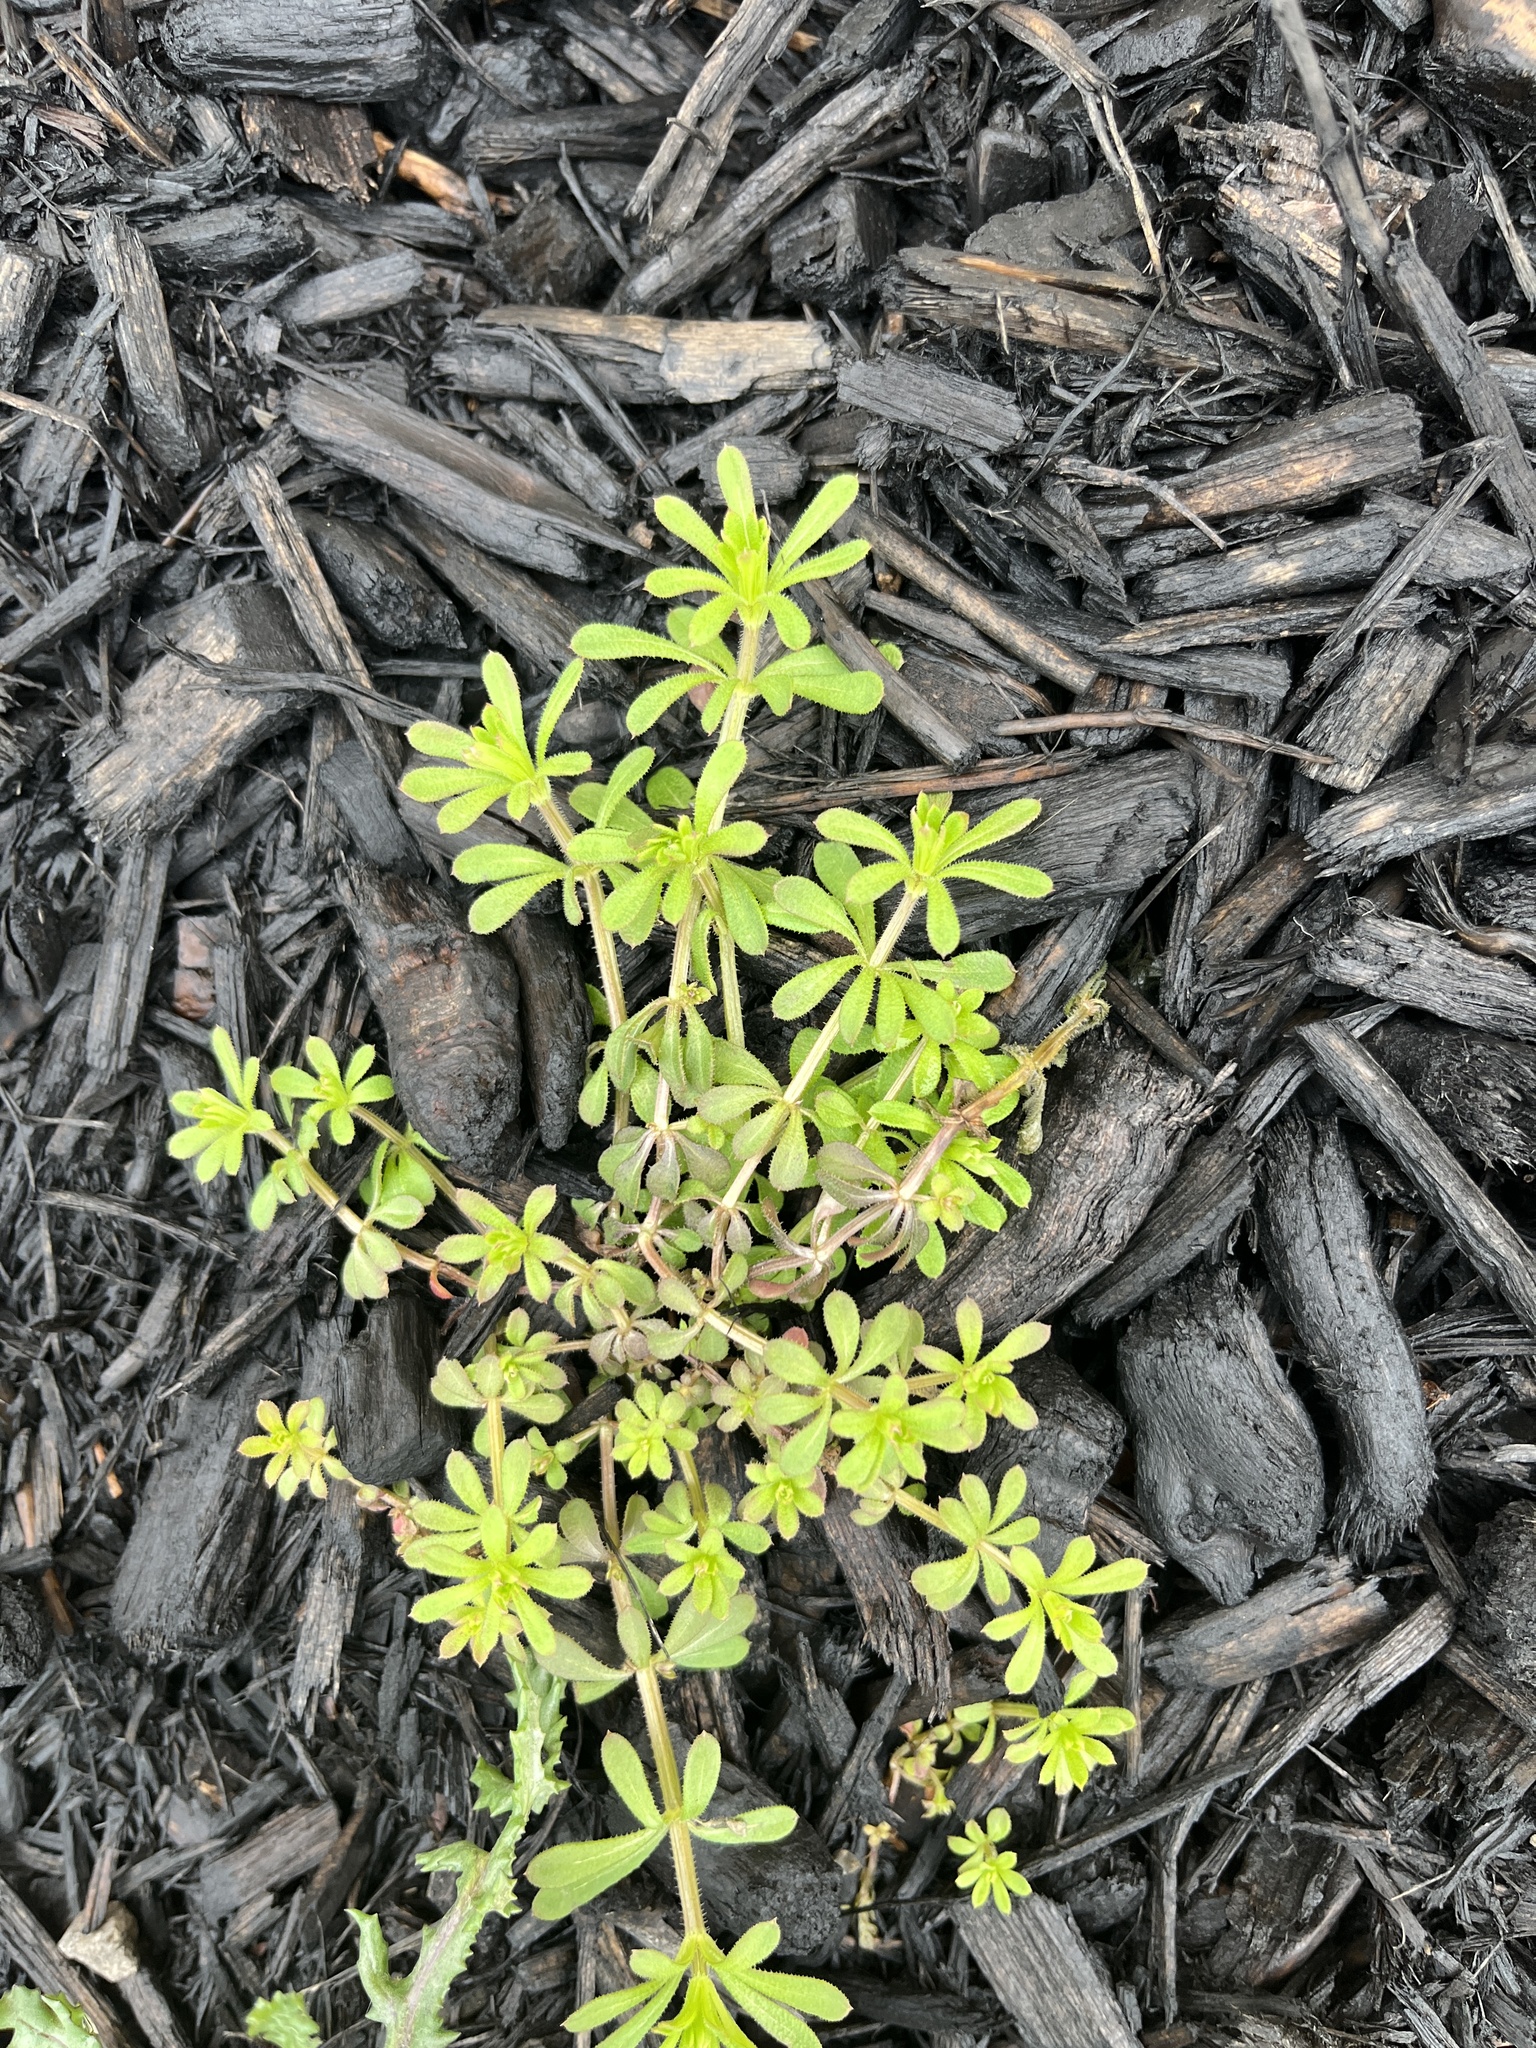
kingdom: Plantae
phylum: Tracheophyta
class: Magnoliopsida
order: Gentianales
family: Rubiaceae
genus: Galium
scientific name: Galium aparine
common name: Cleavers
